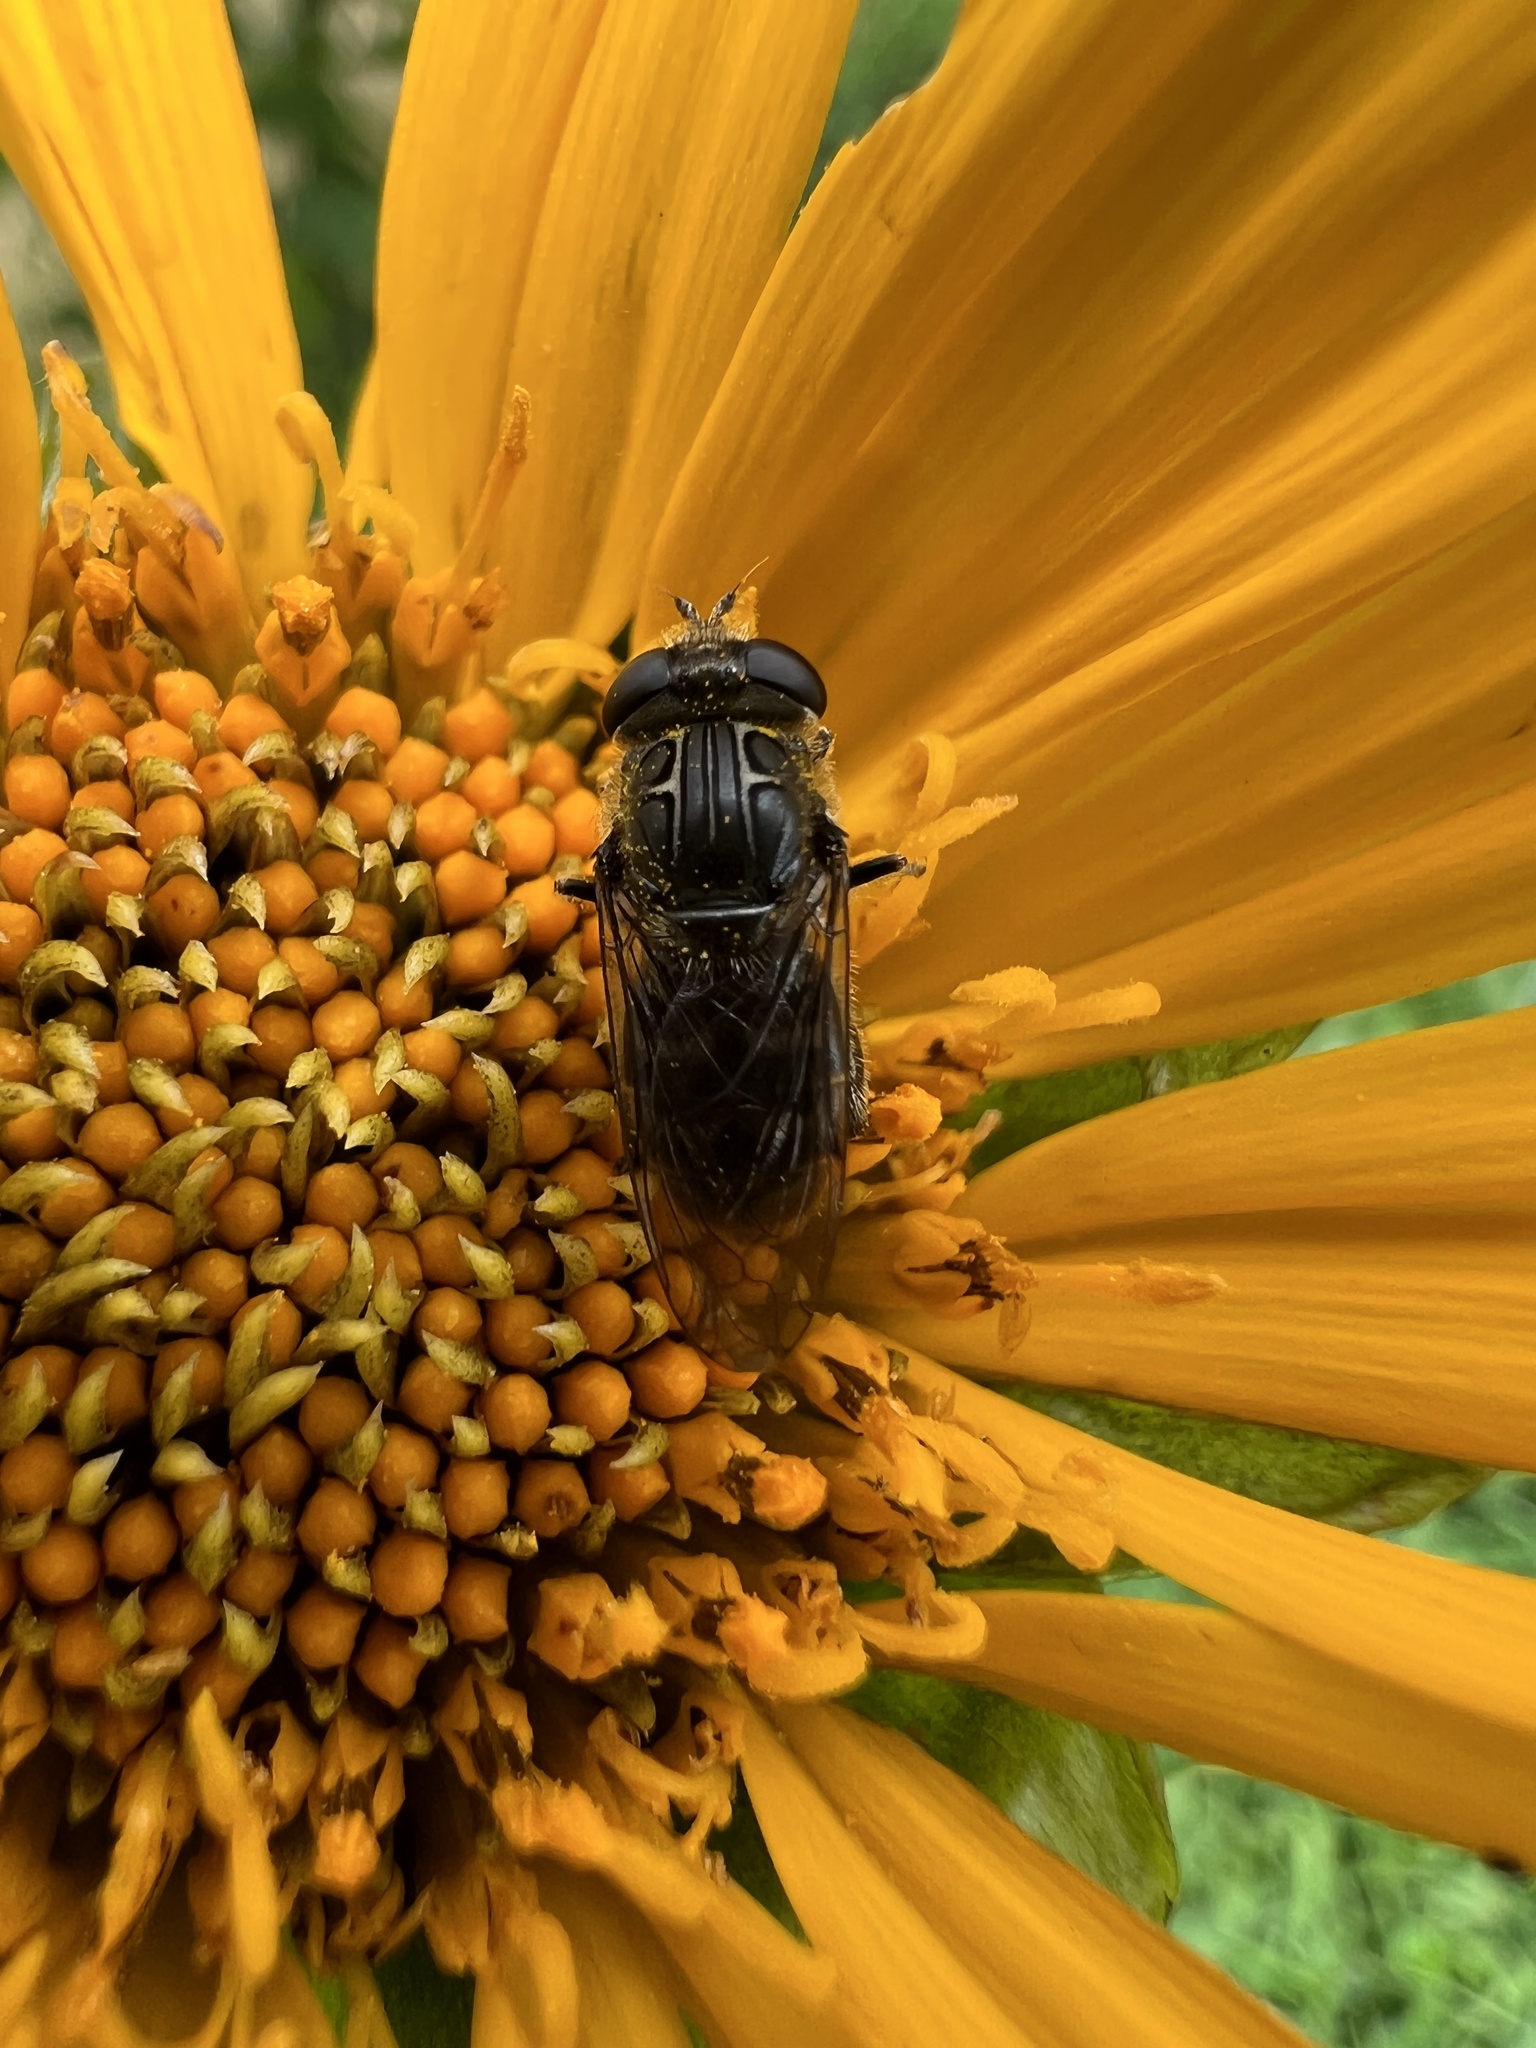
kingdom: Animalia
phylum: Arthropoda
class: Insecta
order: Diptera
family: Syrphidae
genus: Asemosyrphus
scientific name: Asemosyrphus
